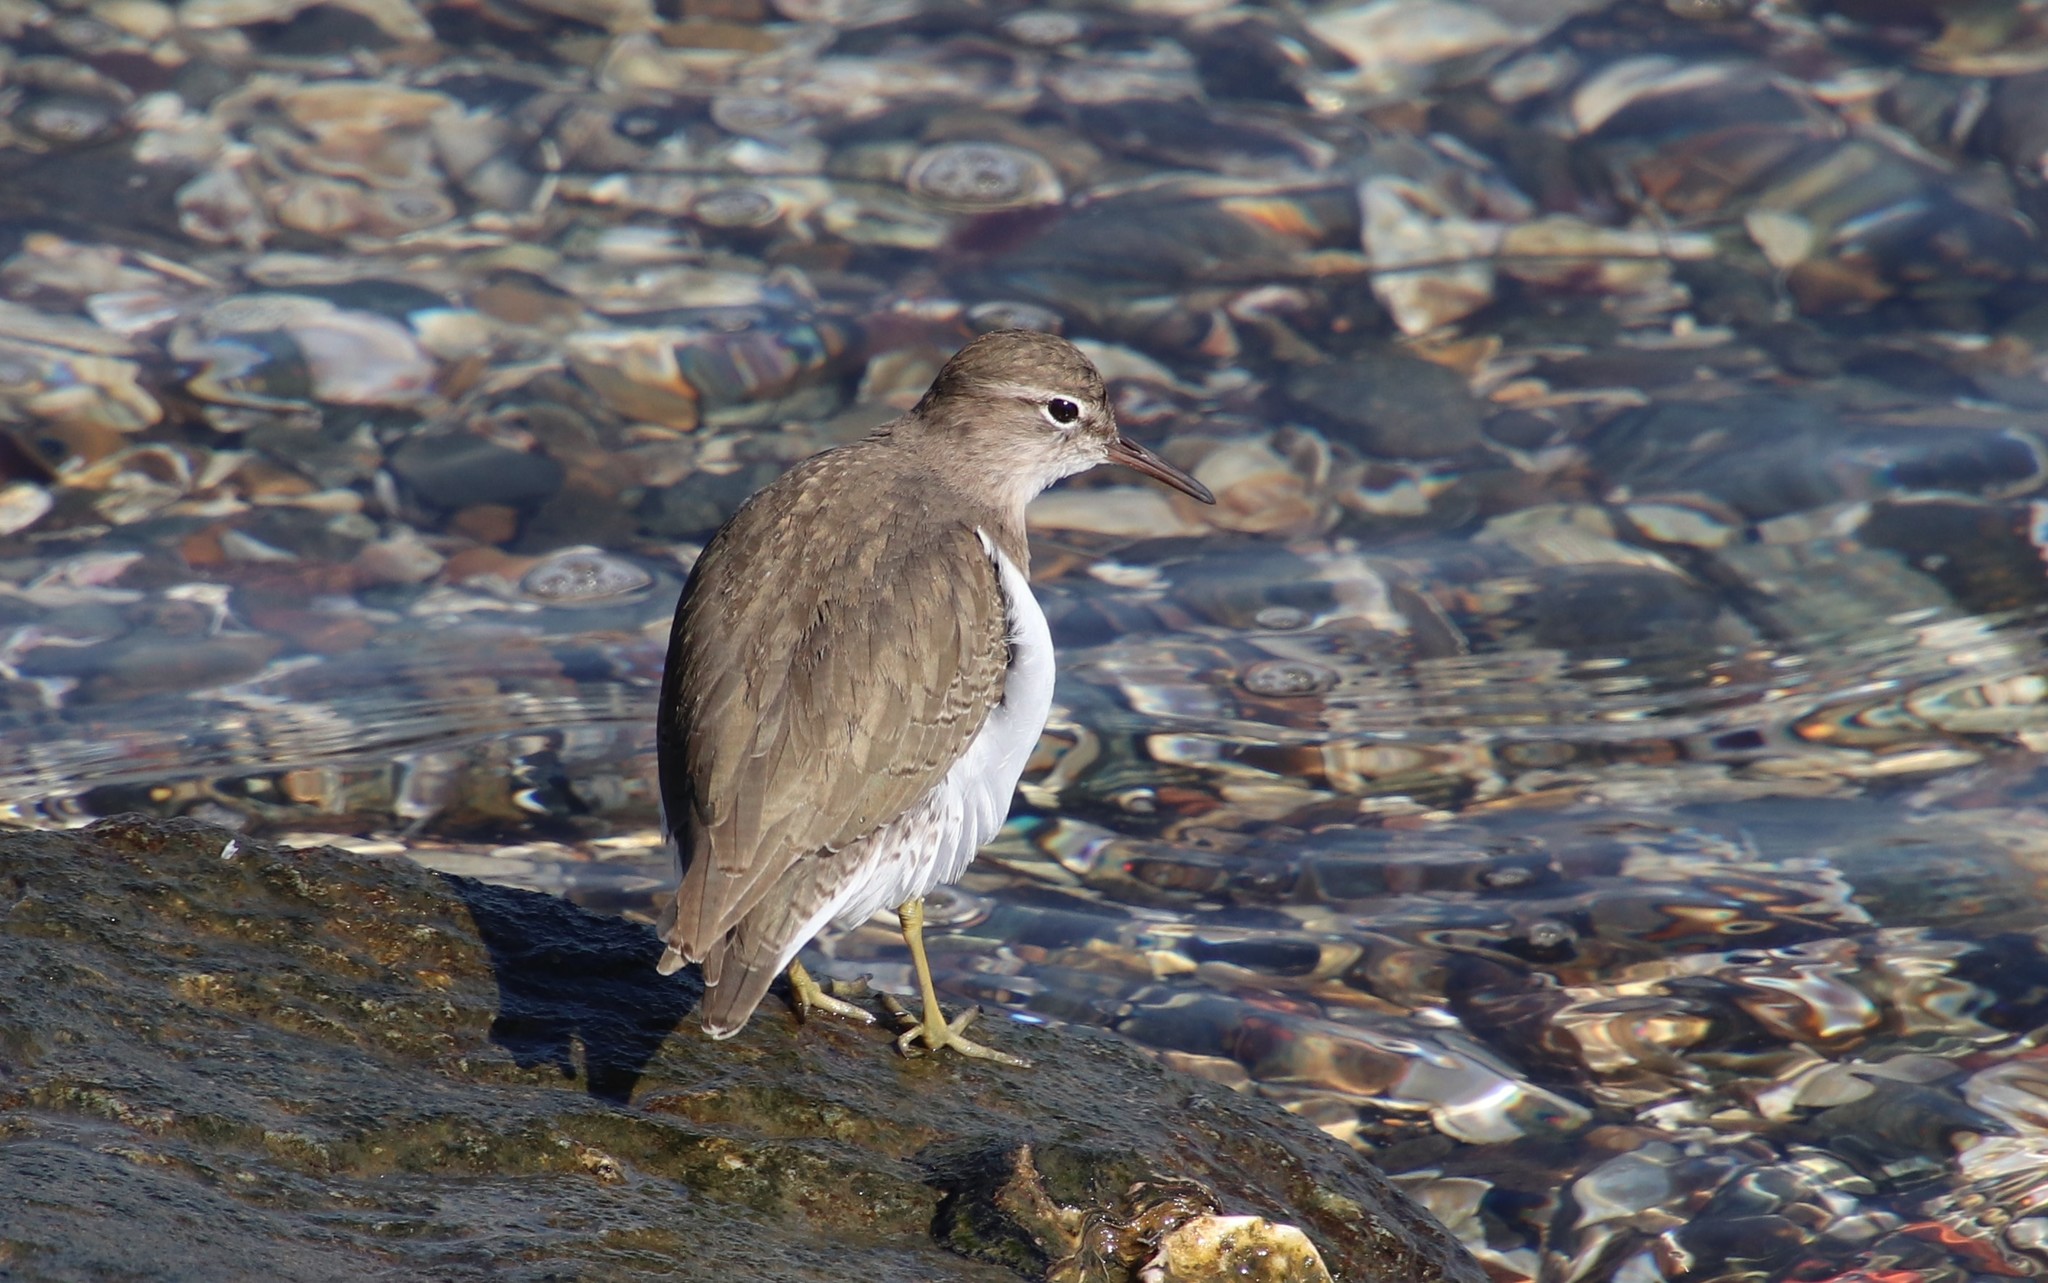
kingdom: Animalia
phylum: Chordata
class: Aves
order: Charadriiformes
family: Scolopacidae
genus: Actitis
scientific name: Actitis macularius
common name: Spotted sandpiper
